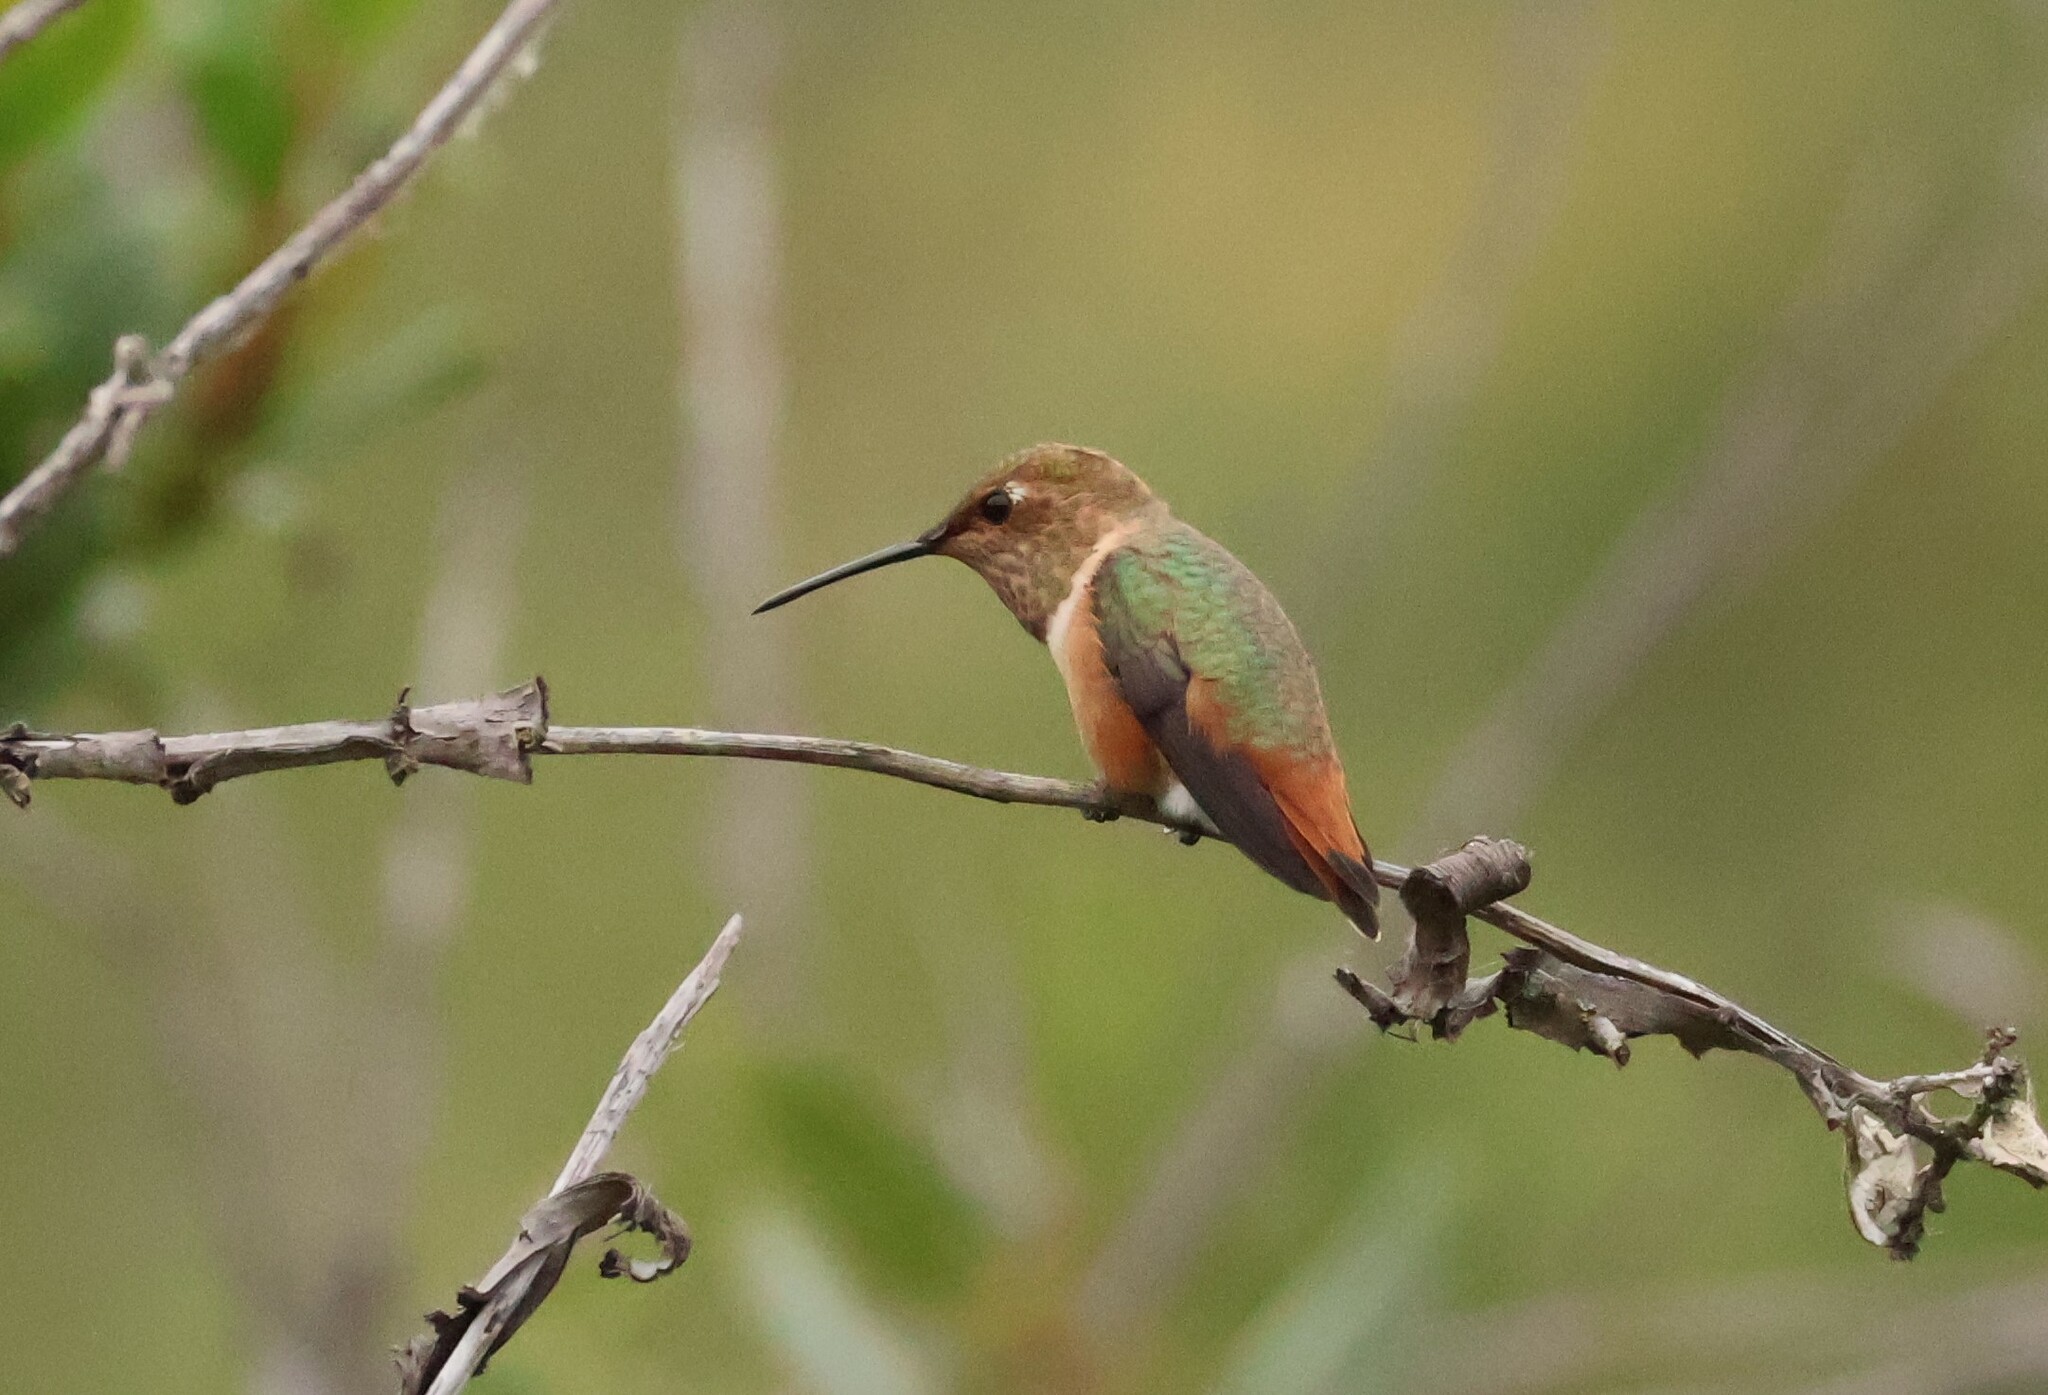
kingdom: Animalia
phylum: Chordata
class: Aves
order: Apodiformes
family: Trochilidae
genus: Selasphorus
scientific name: Selasphorus sasin
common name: Allen's hummingbird
